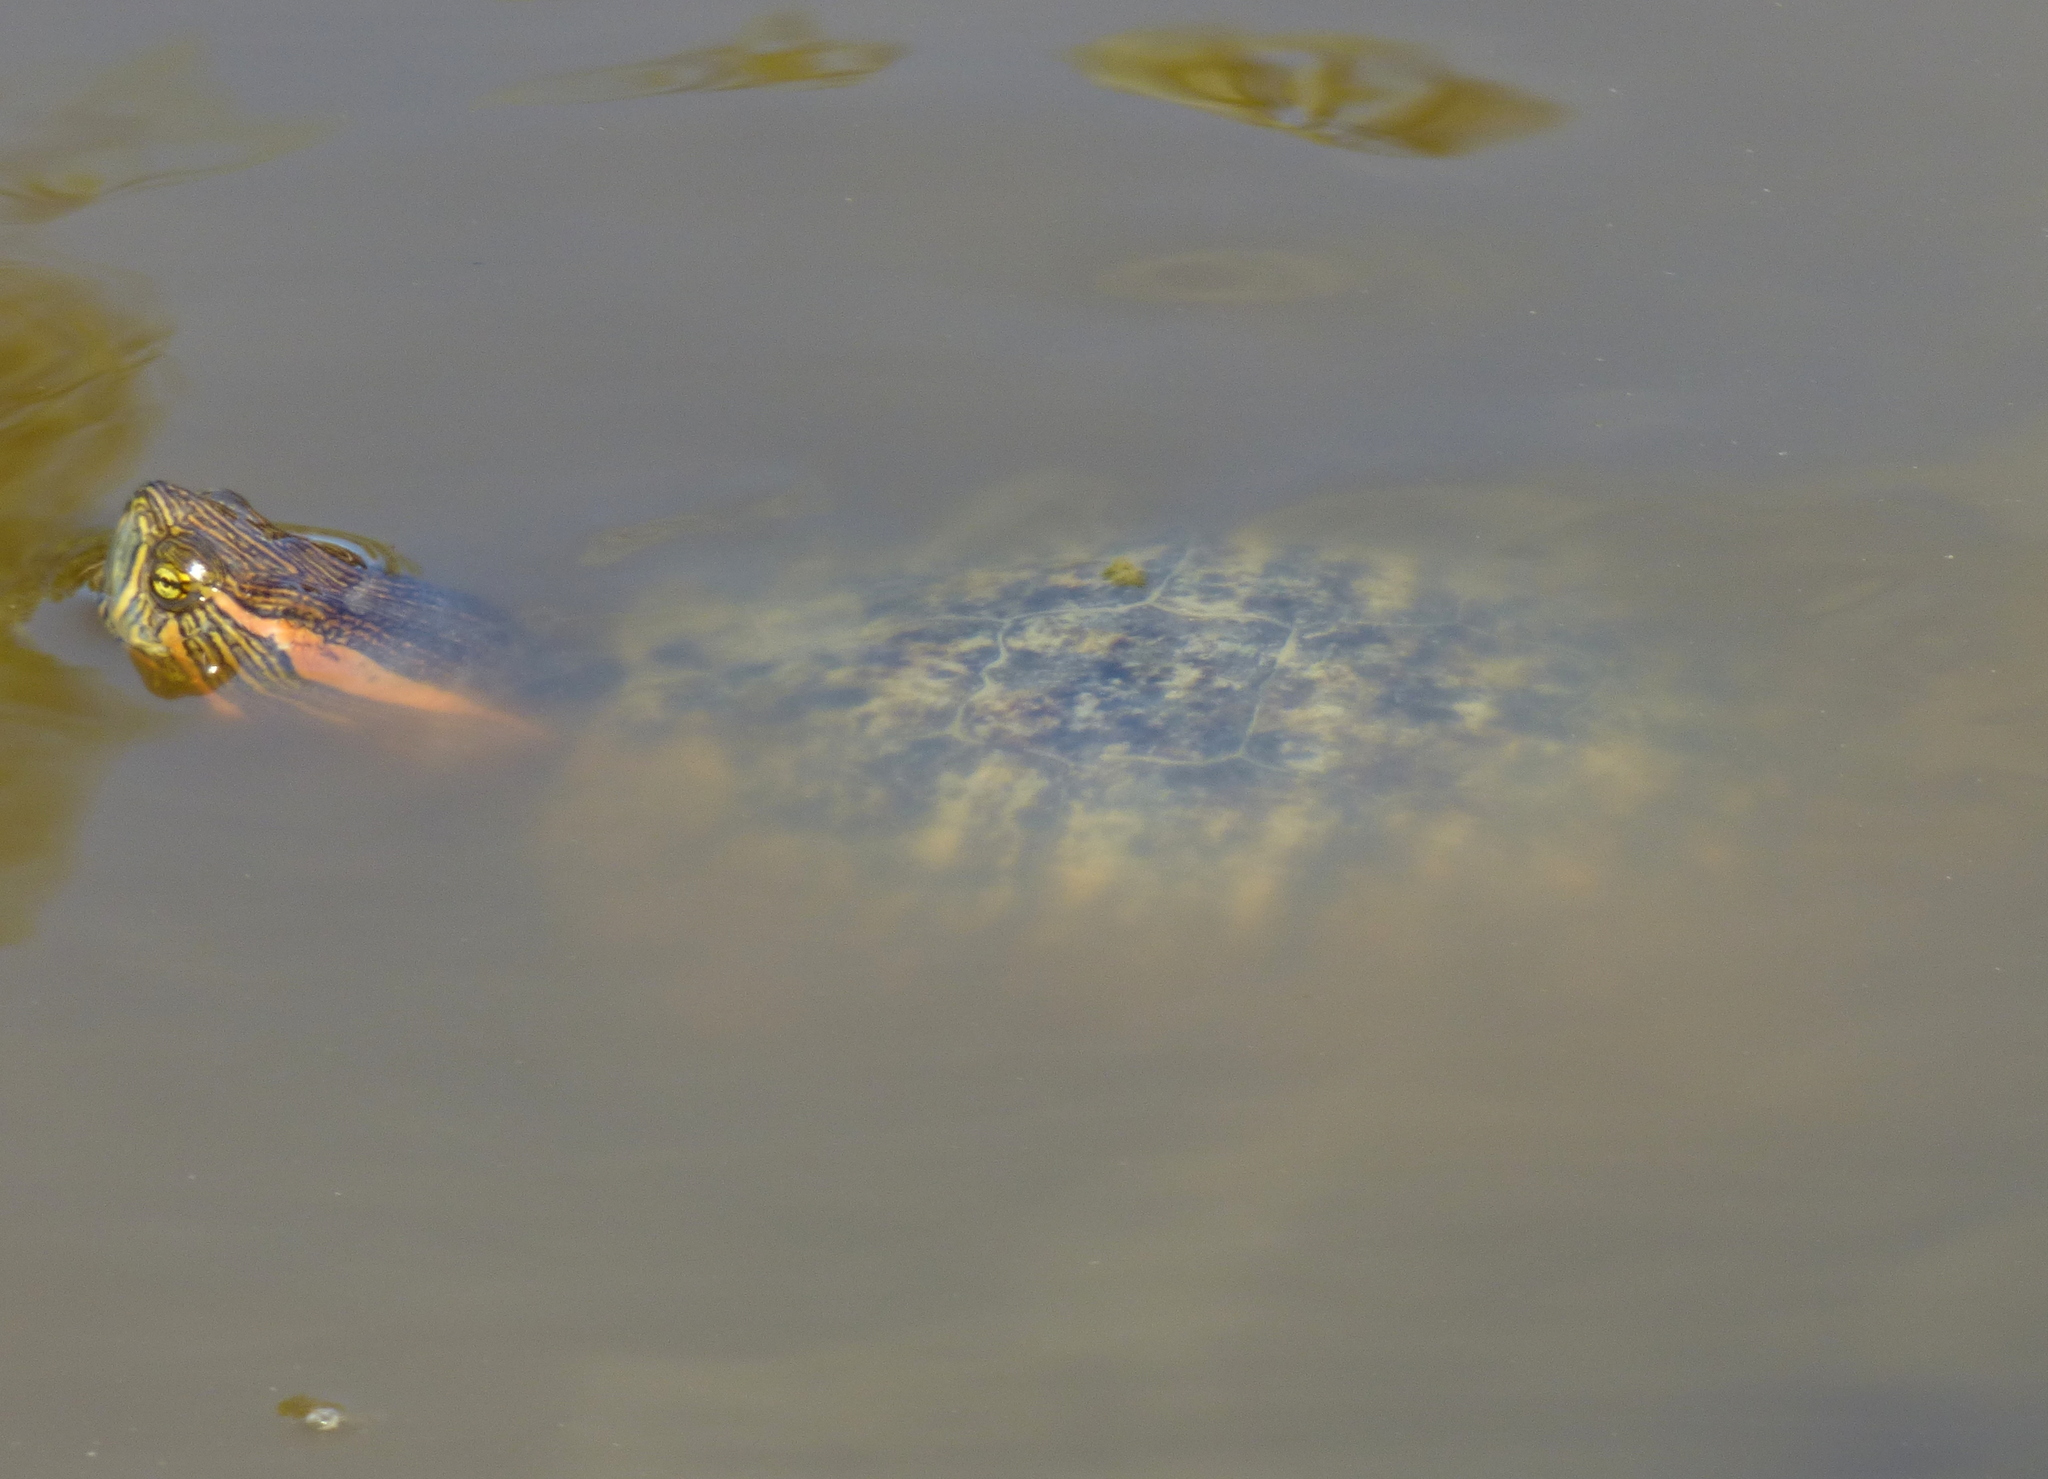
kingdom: Animalia
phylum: Chordata
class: Testudines
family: Emydidae
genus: Trachemys
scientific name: Trachemys dorbigni
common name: Black-bellied slider
